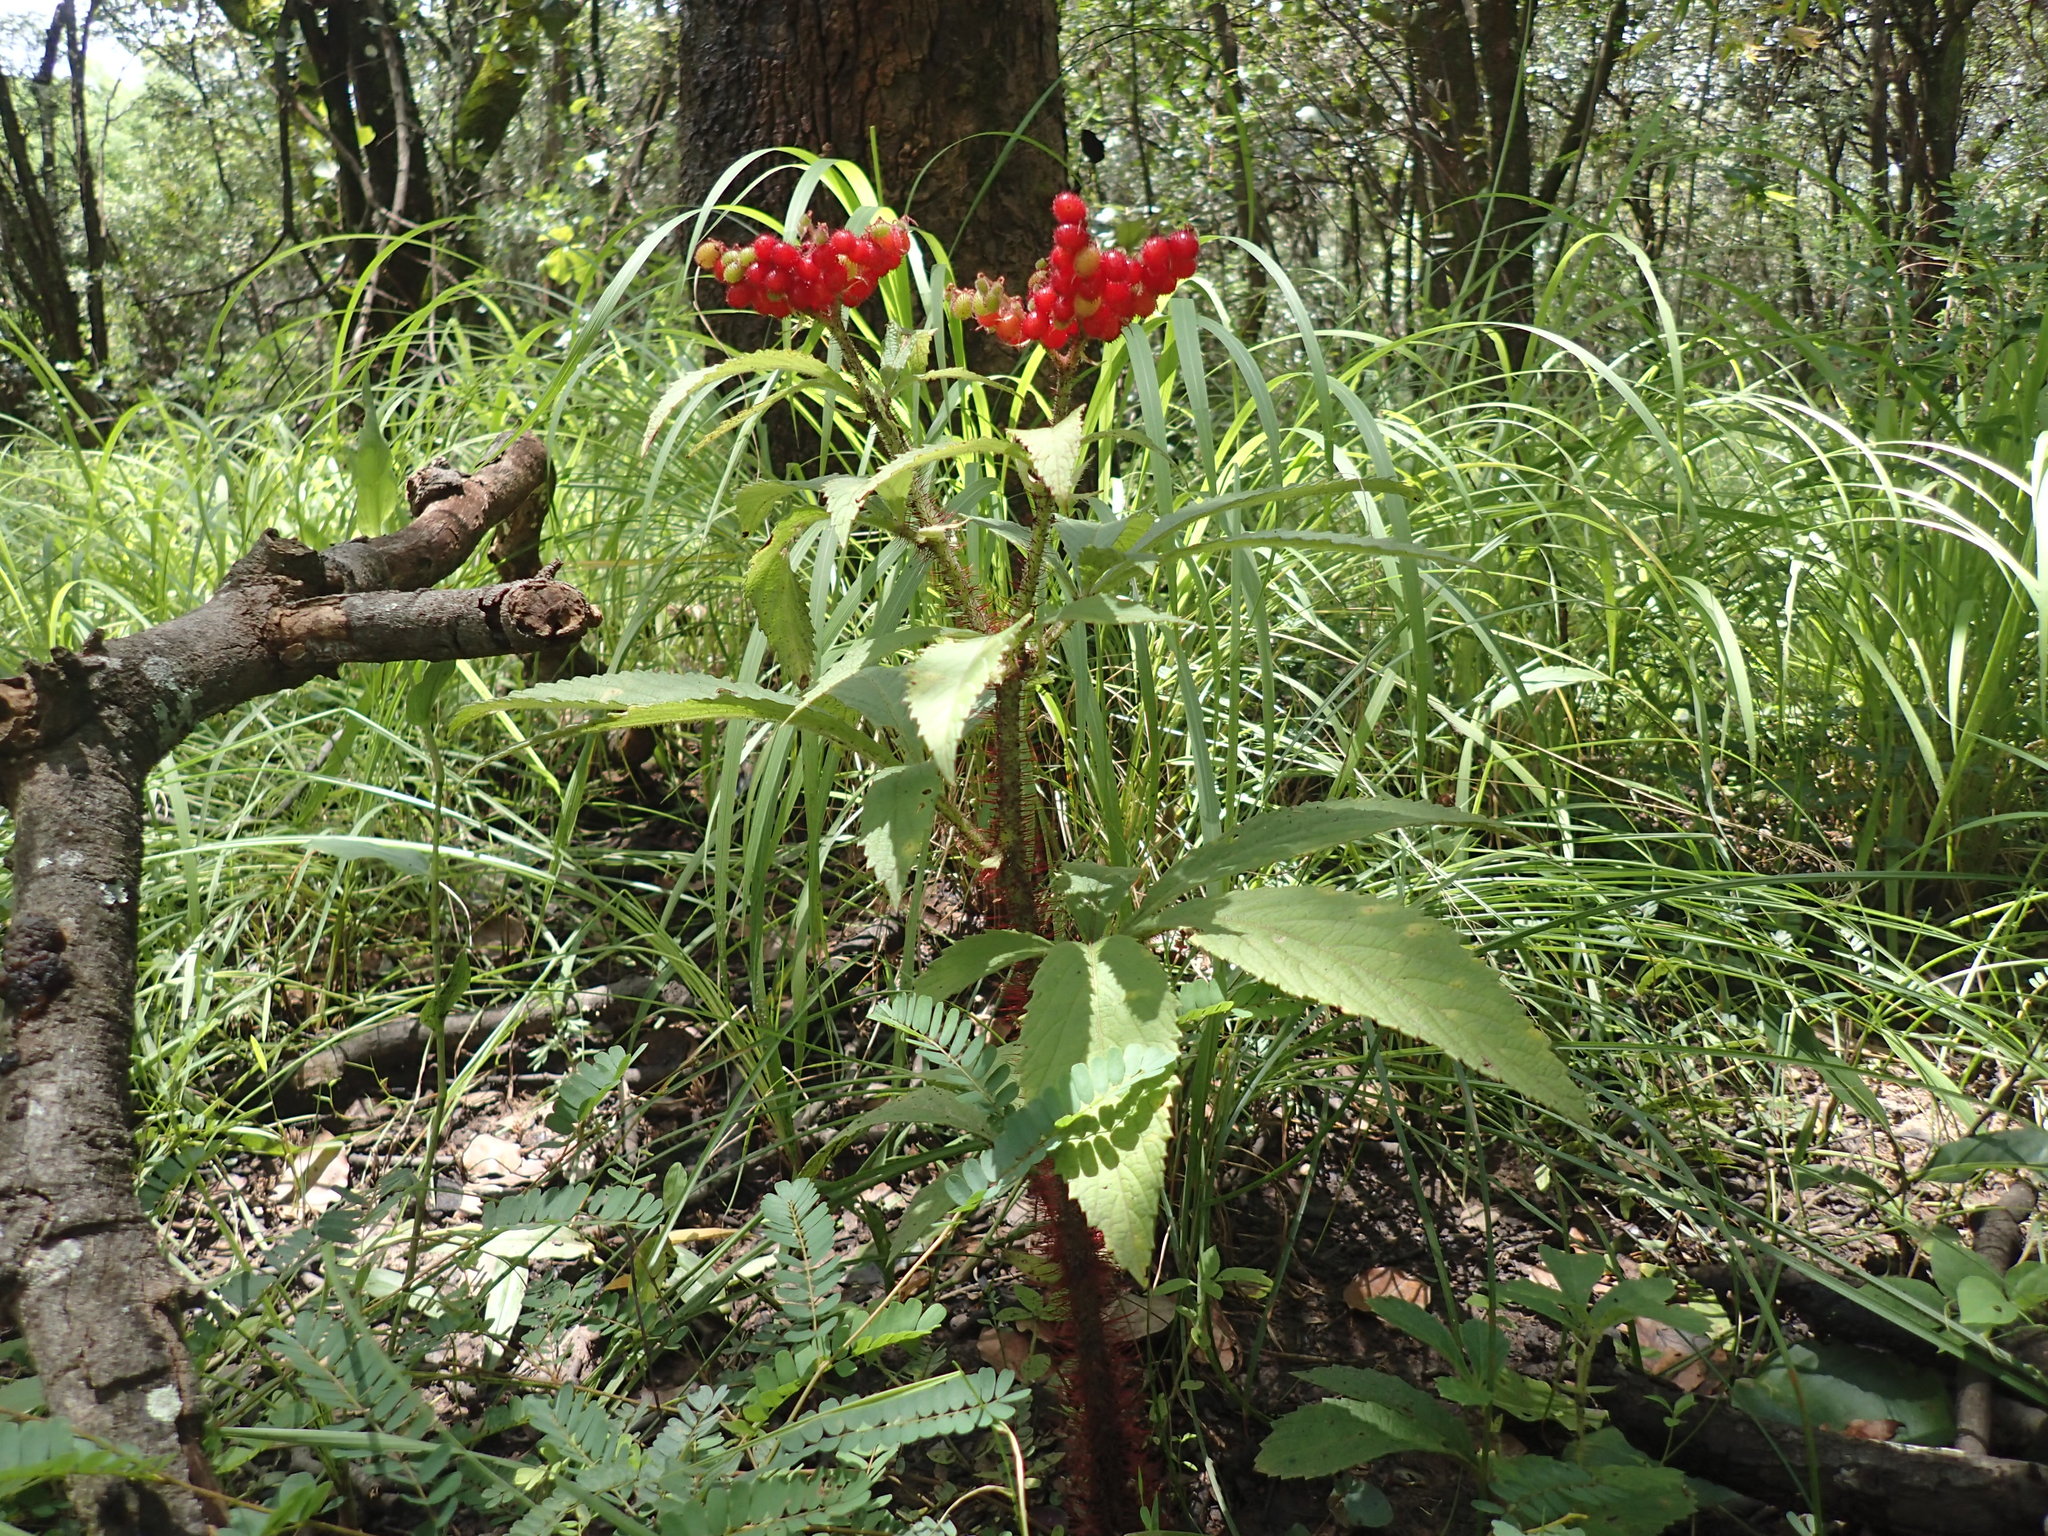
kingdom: Plantae
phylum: Tracheophyta
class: Magnoliopsida
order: Vitales
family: Vitaceae
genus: Cyphostemma
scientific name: Cyphostemma vanmeelii
